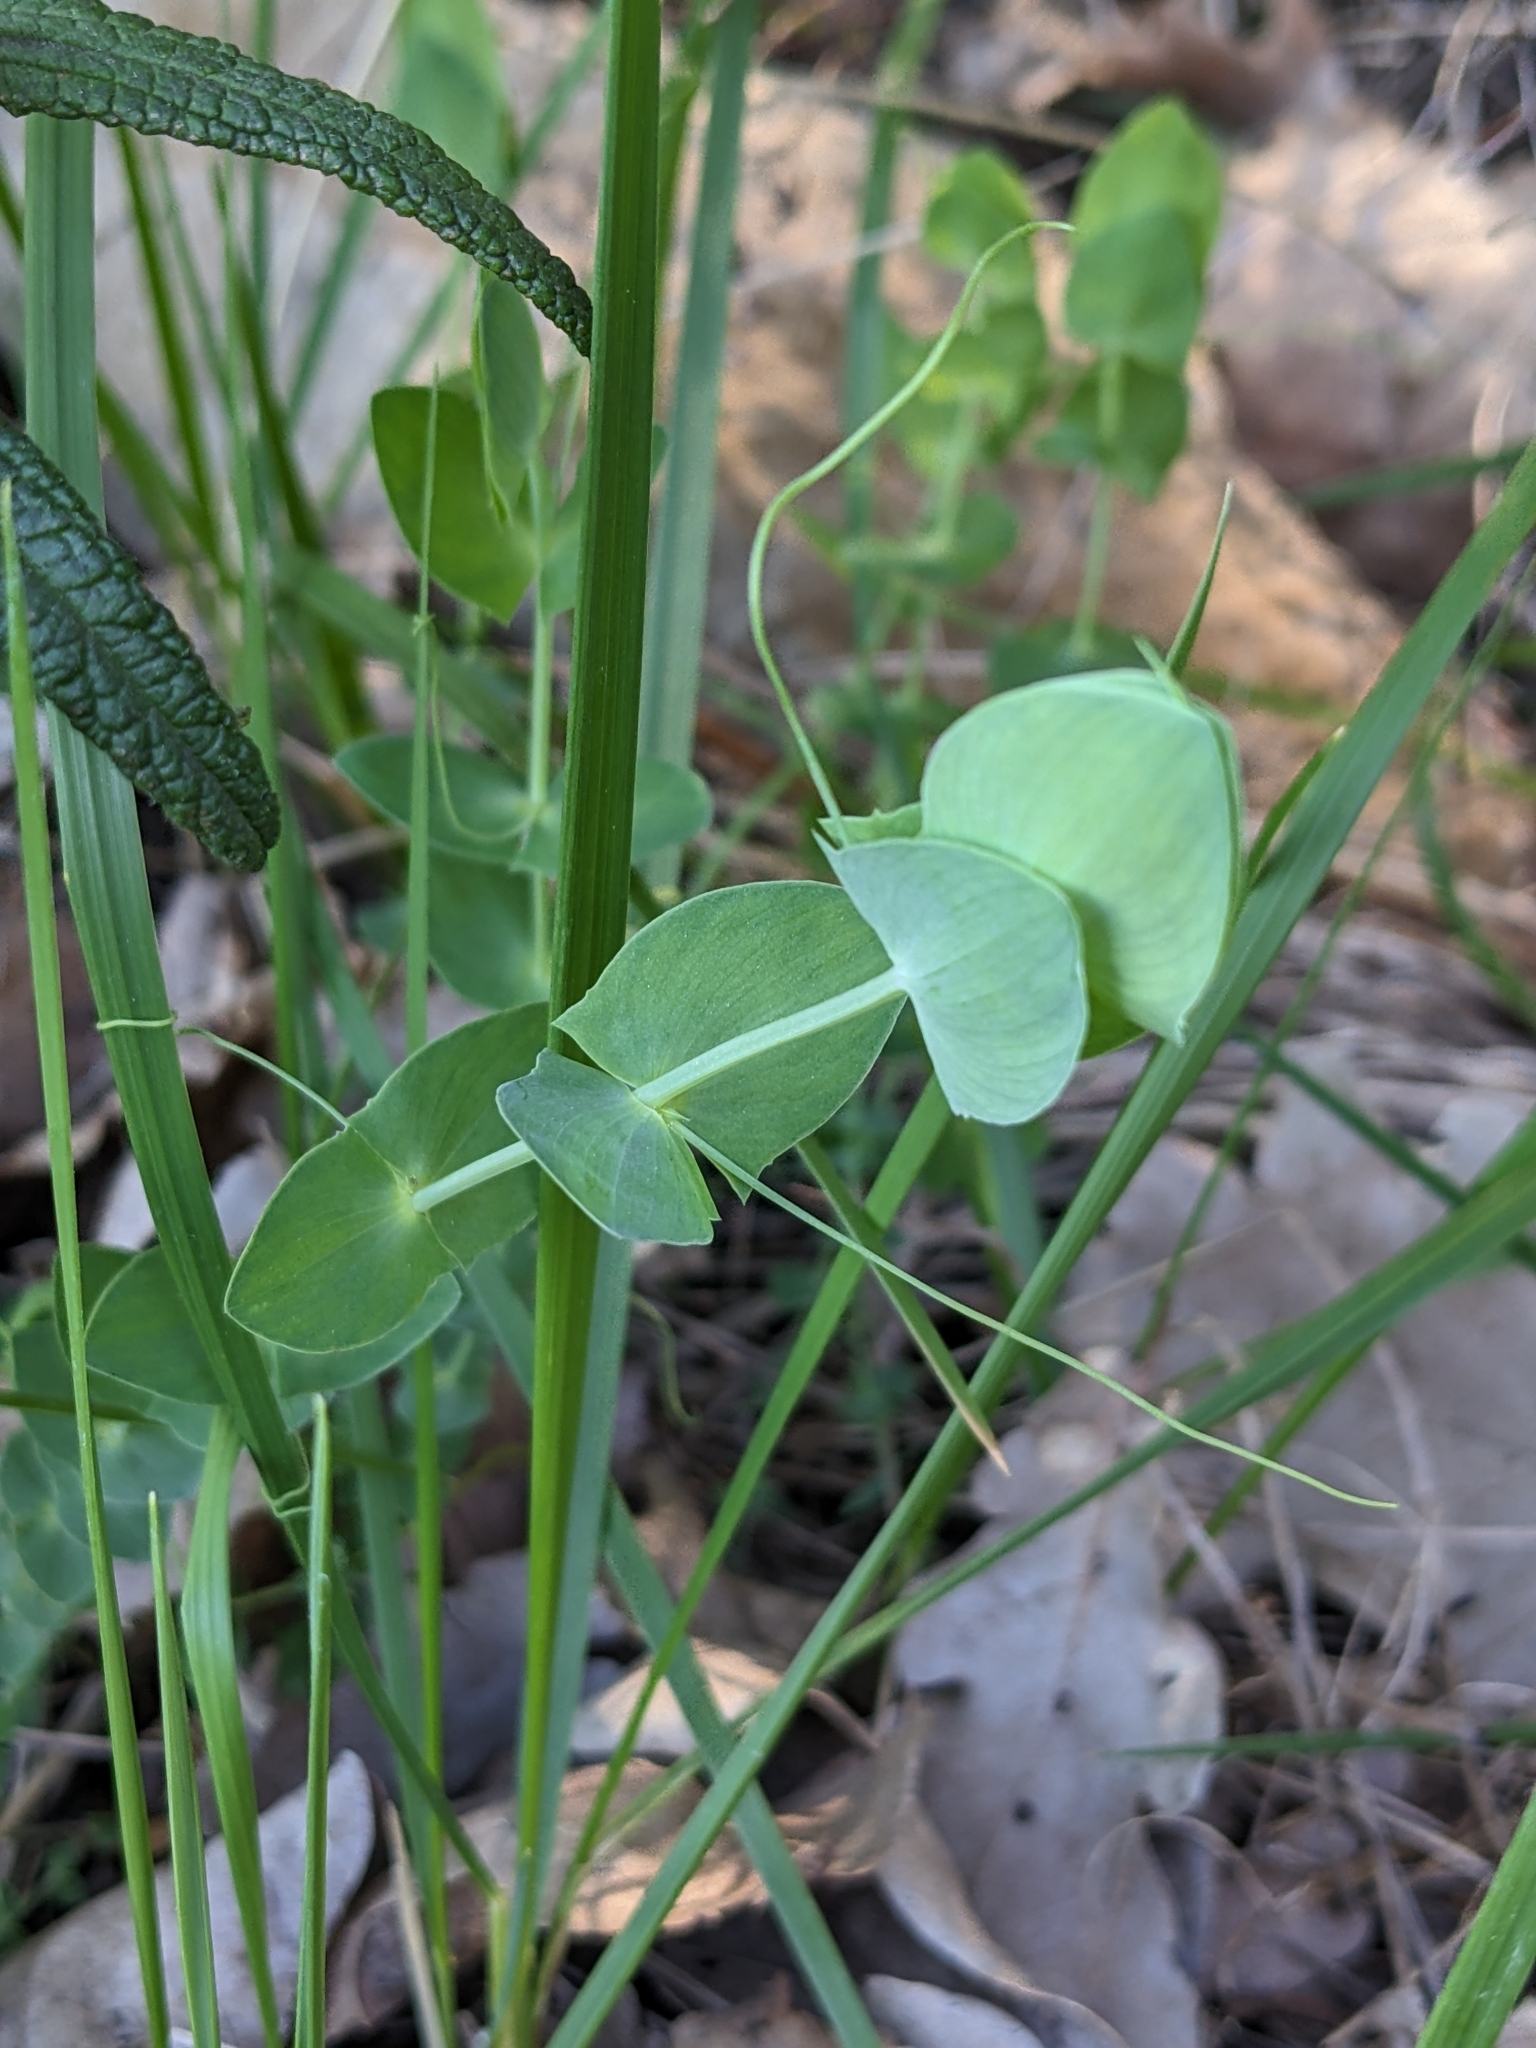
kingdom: Plantae
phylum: Tracheophyta
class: Magnoliopsida
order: Fabales
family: Fabaceae
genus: Lathyrus
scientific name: Lathyrus aphaca
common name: Yellow vetchling
